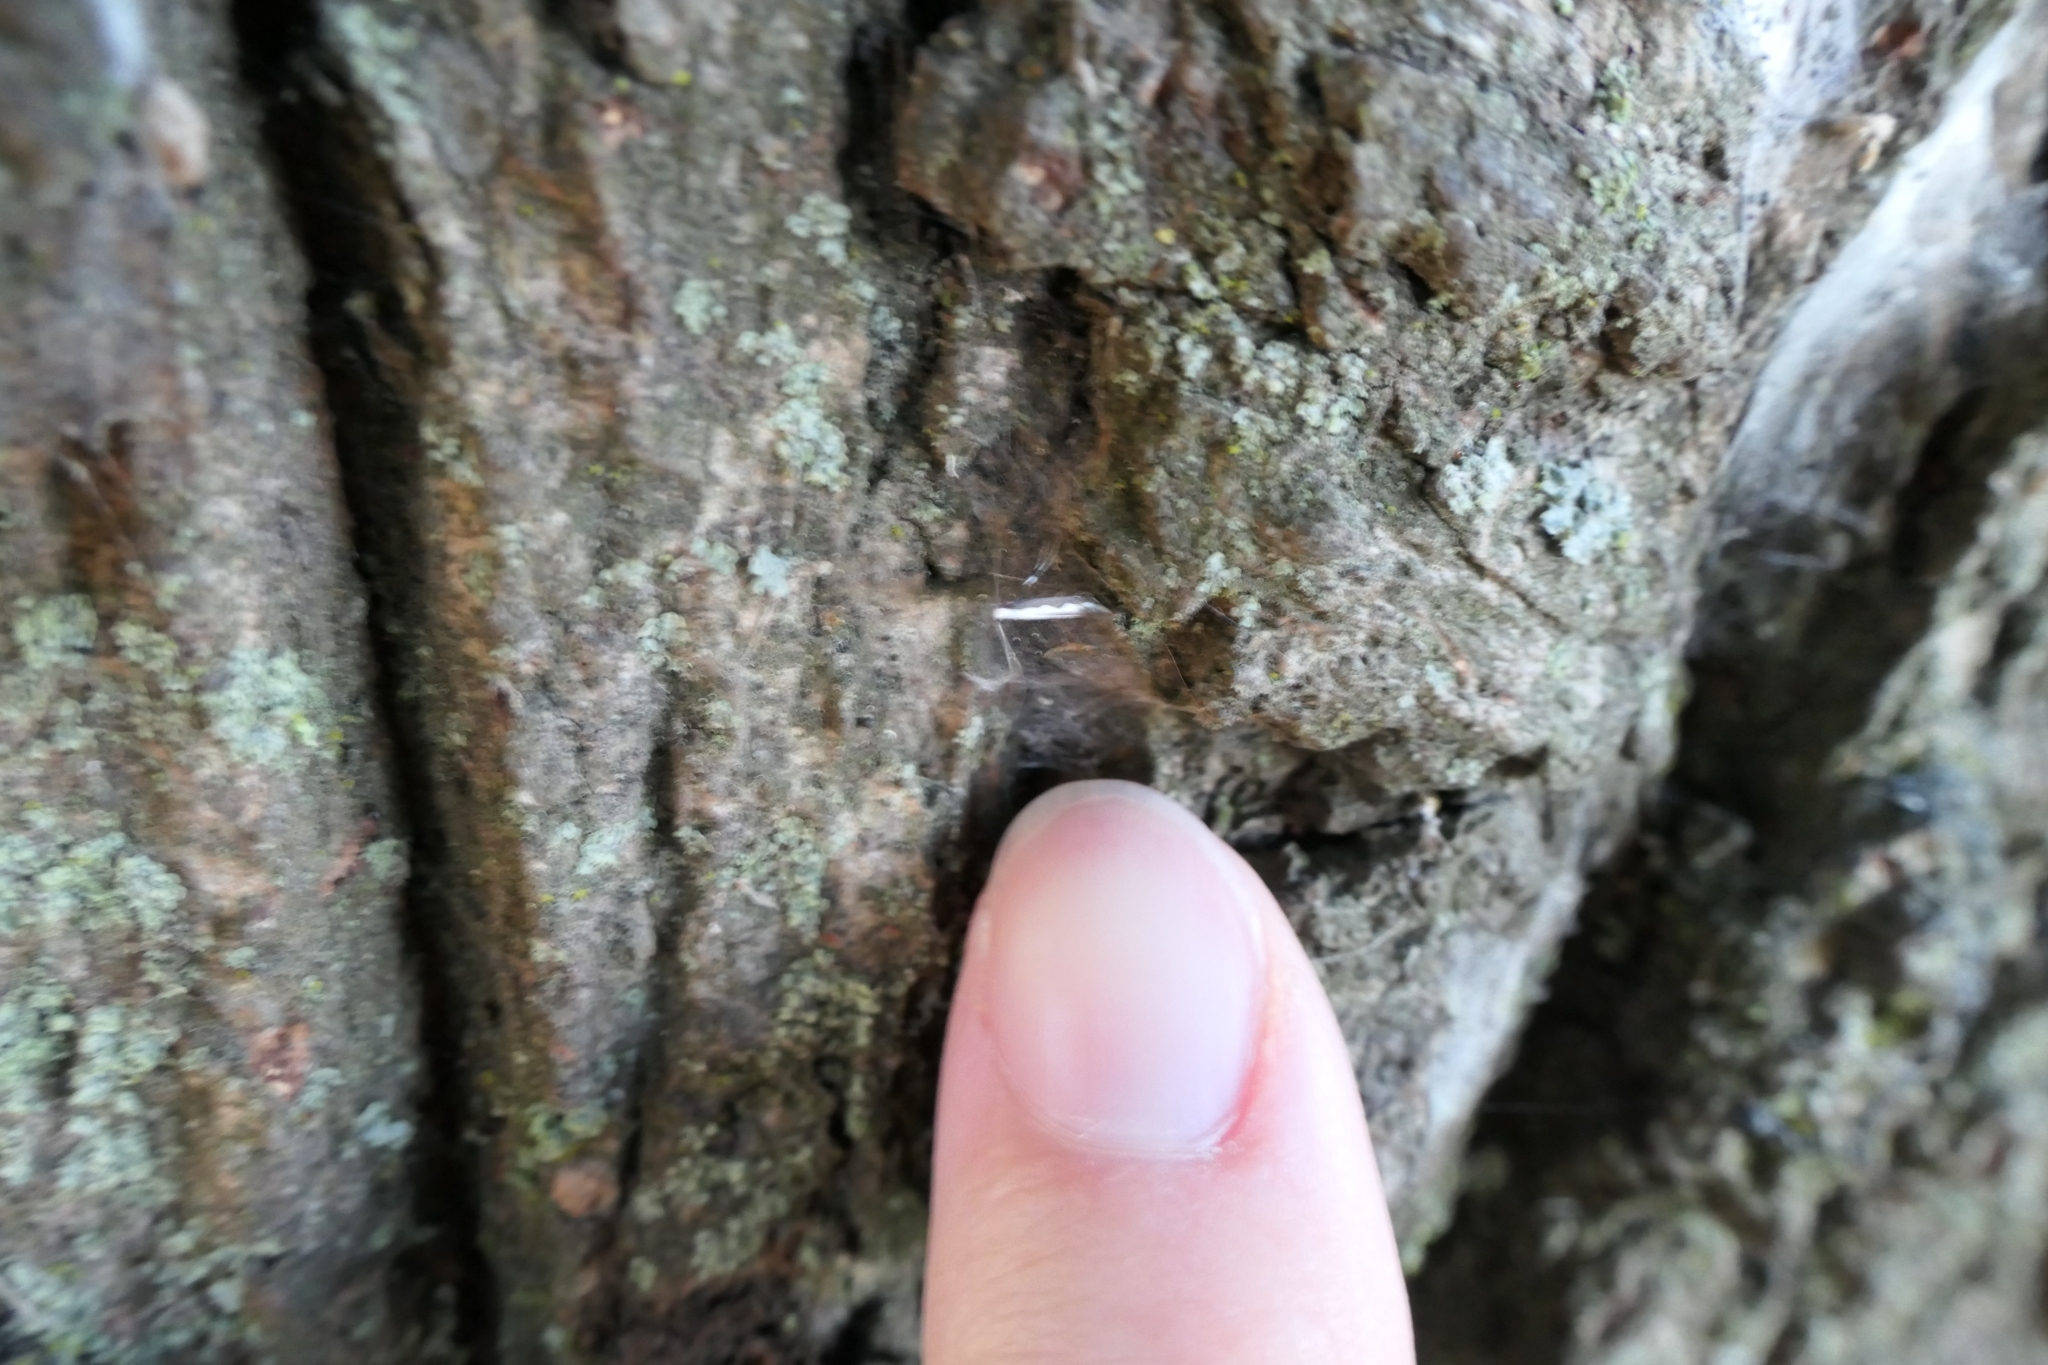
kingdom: Animalia
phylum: Arthropoda
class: Insecta
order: Lepidoptera
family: Gracillariidae
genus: Dialectica
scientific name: Dialectica scalariella
